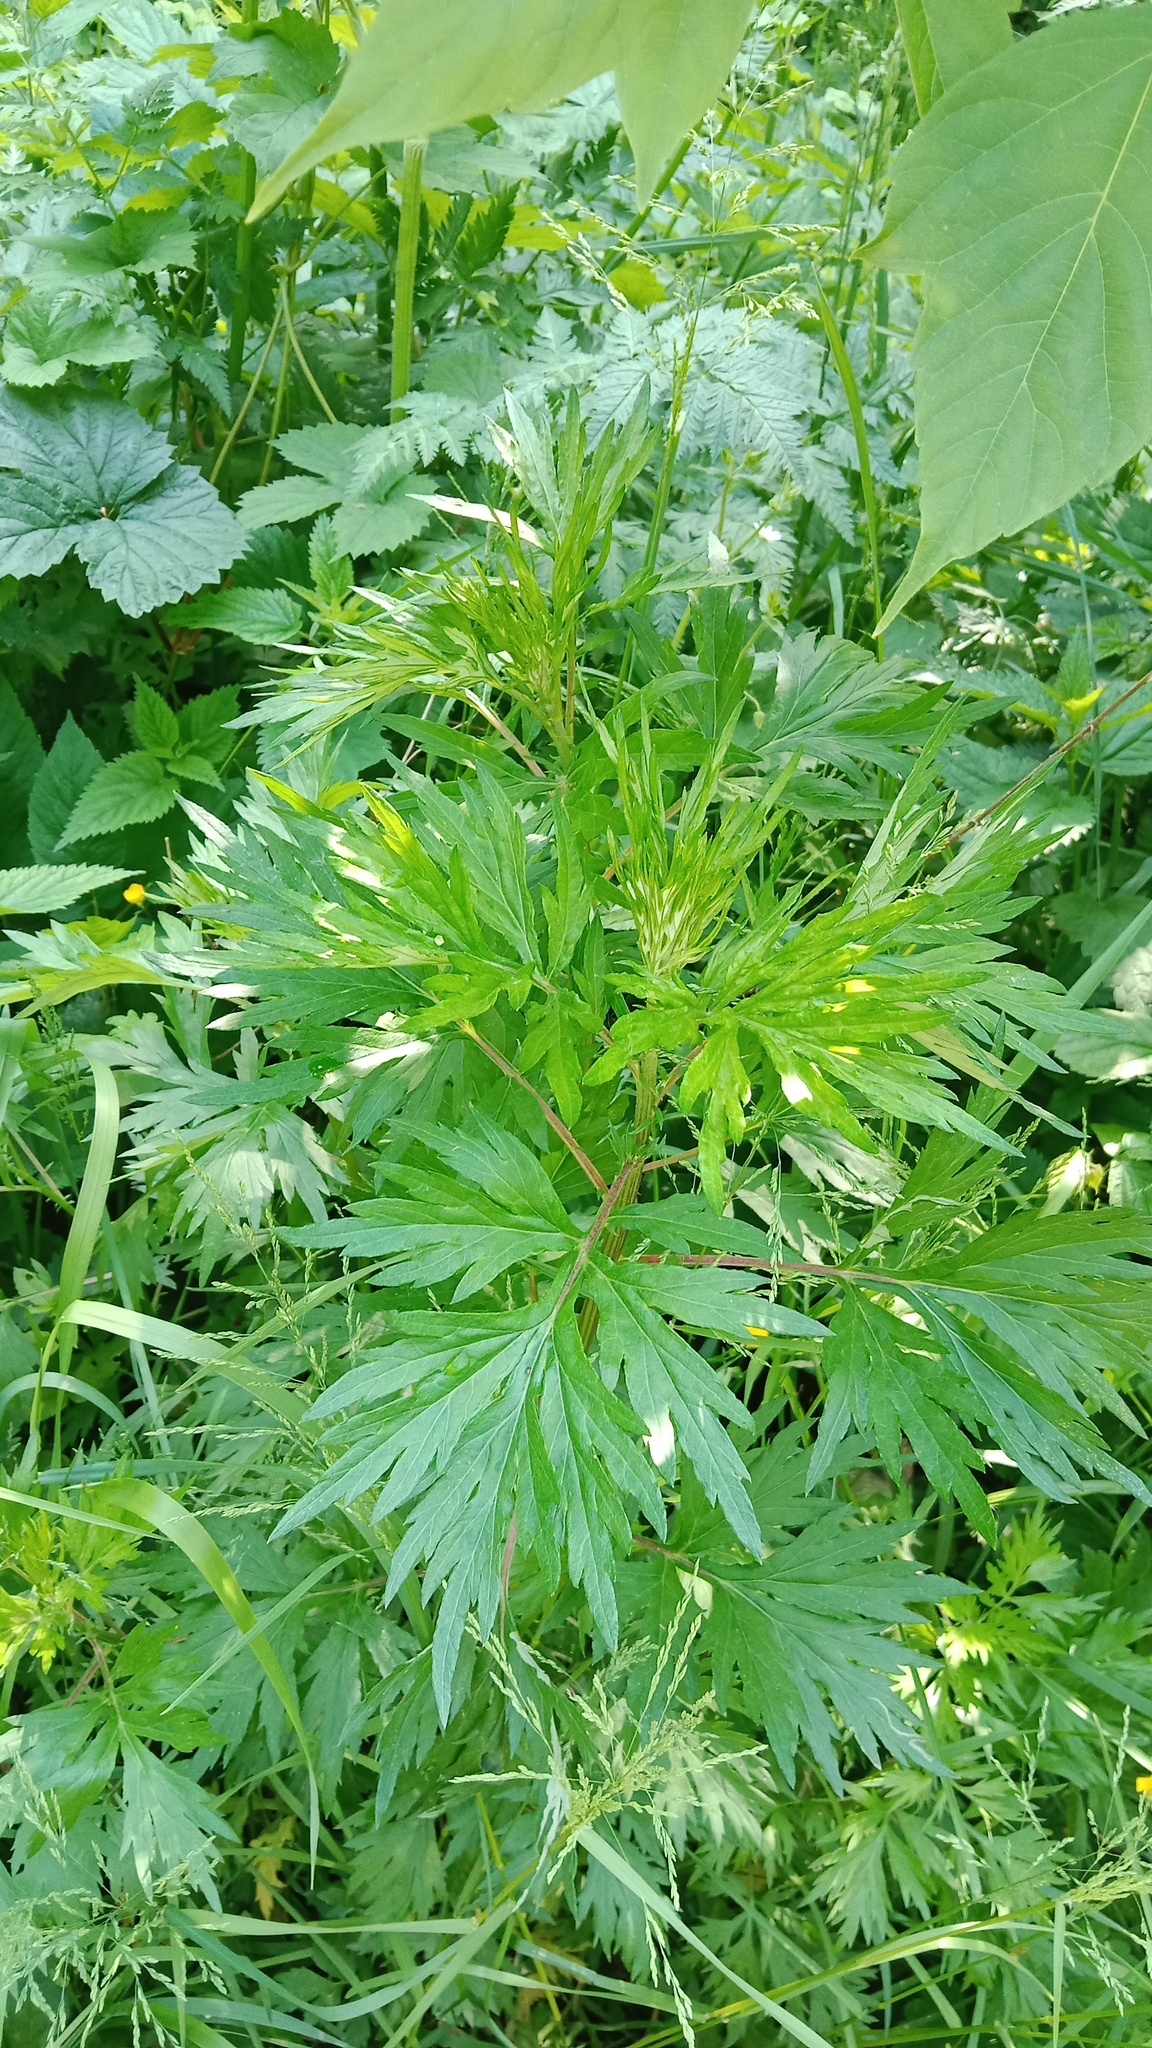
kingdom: Plantae
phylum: Tracheophyta
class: Magnoliopsida
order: Asterales
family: Asteraceae
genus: Artemisia
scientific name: Artemisia vulgaris
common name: Mugwort
